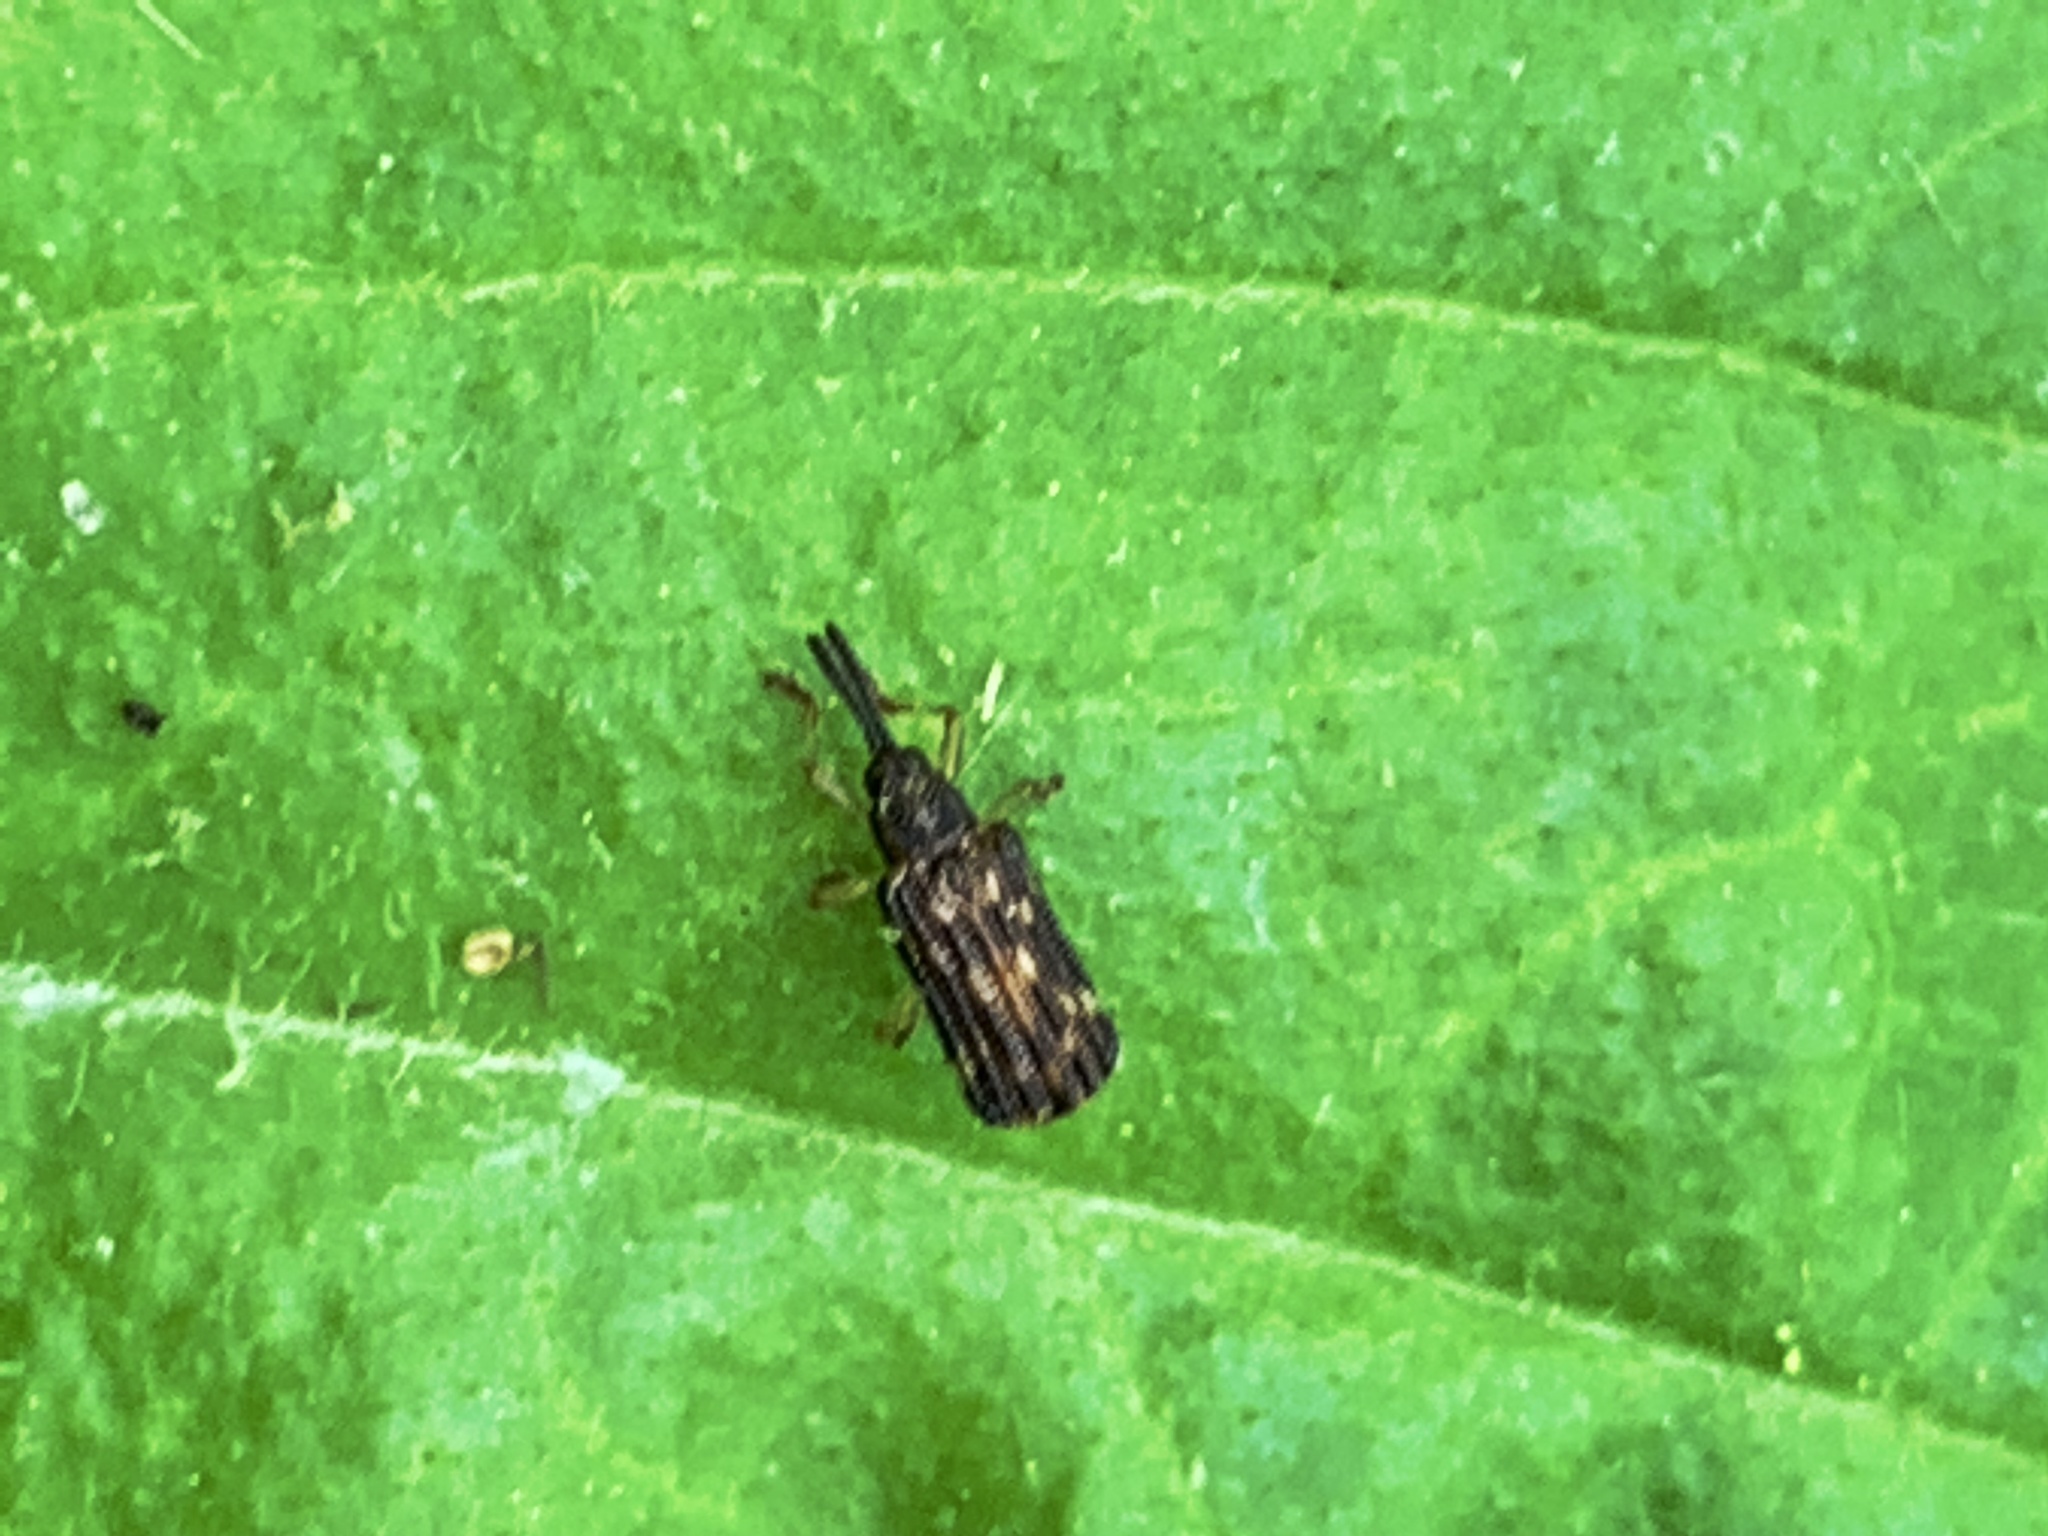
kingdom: Animalia
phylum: Arthropoda
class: Insecta
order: Coleoptera
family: Chrysomelidae
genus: Sumitrosis
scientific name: Sumitrosis inaequalis
